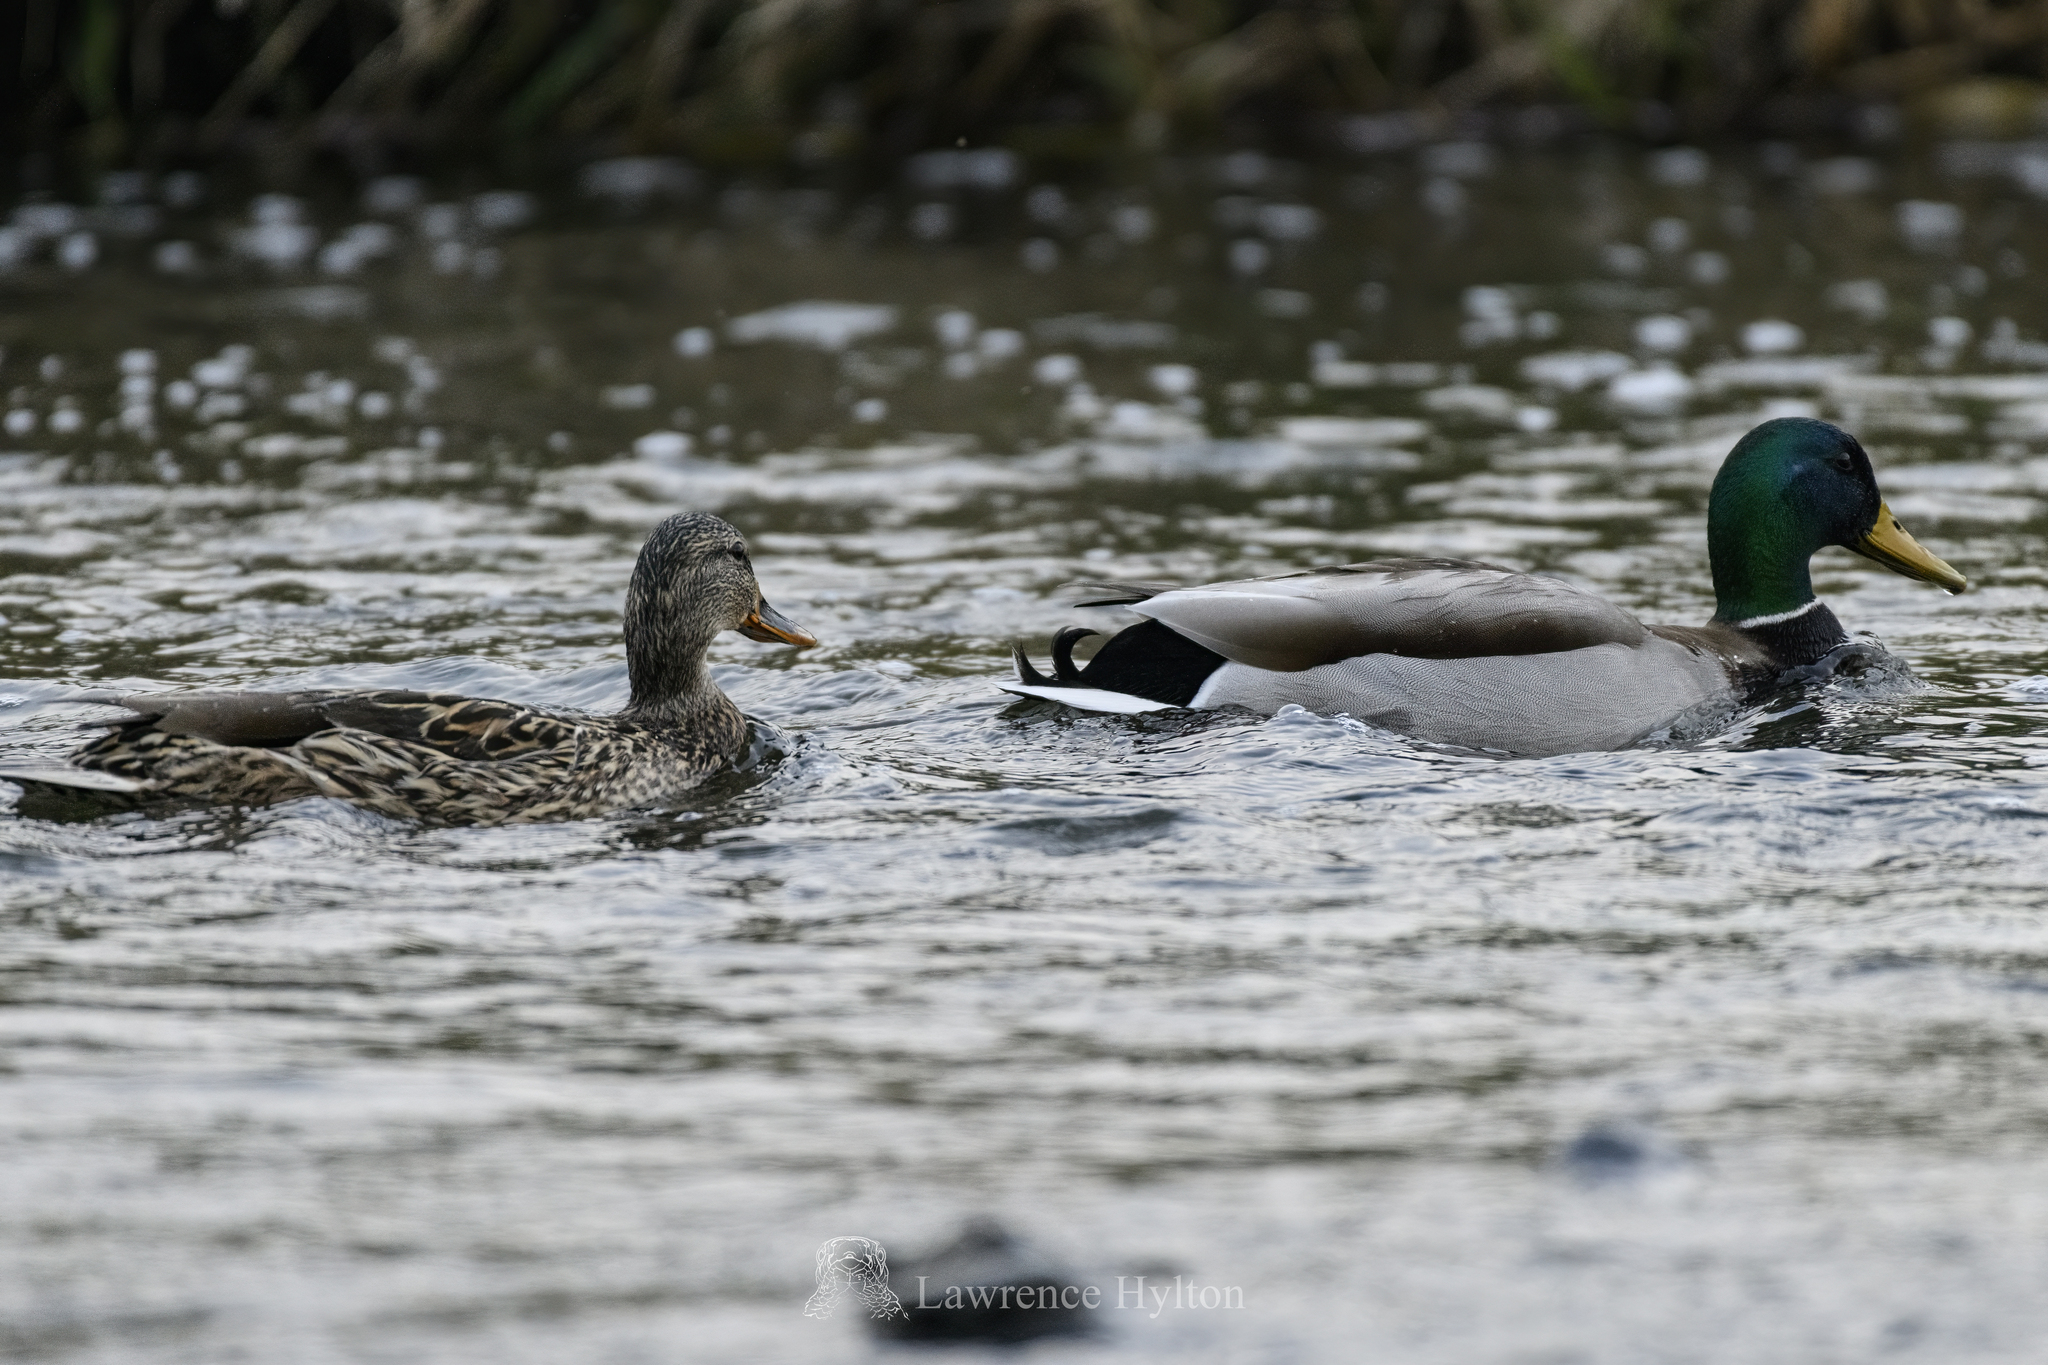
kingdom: Animalia
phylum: Chordata
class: Aves
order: Anseriformes
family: Anatidae
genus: Anas
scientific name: Anas platyrhynchos
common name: Mallard
